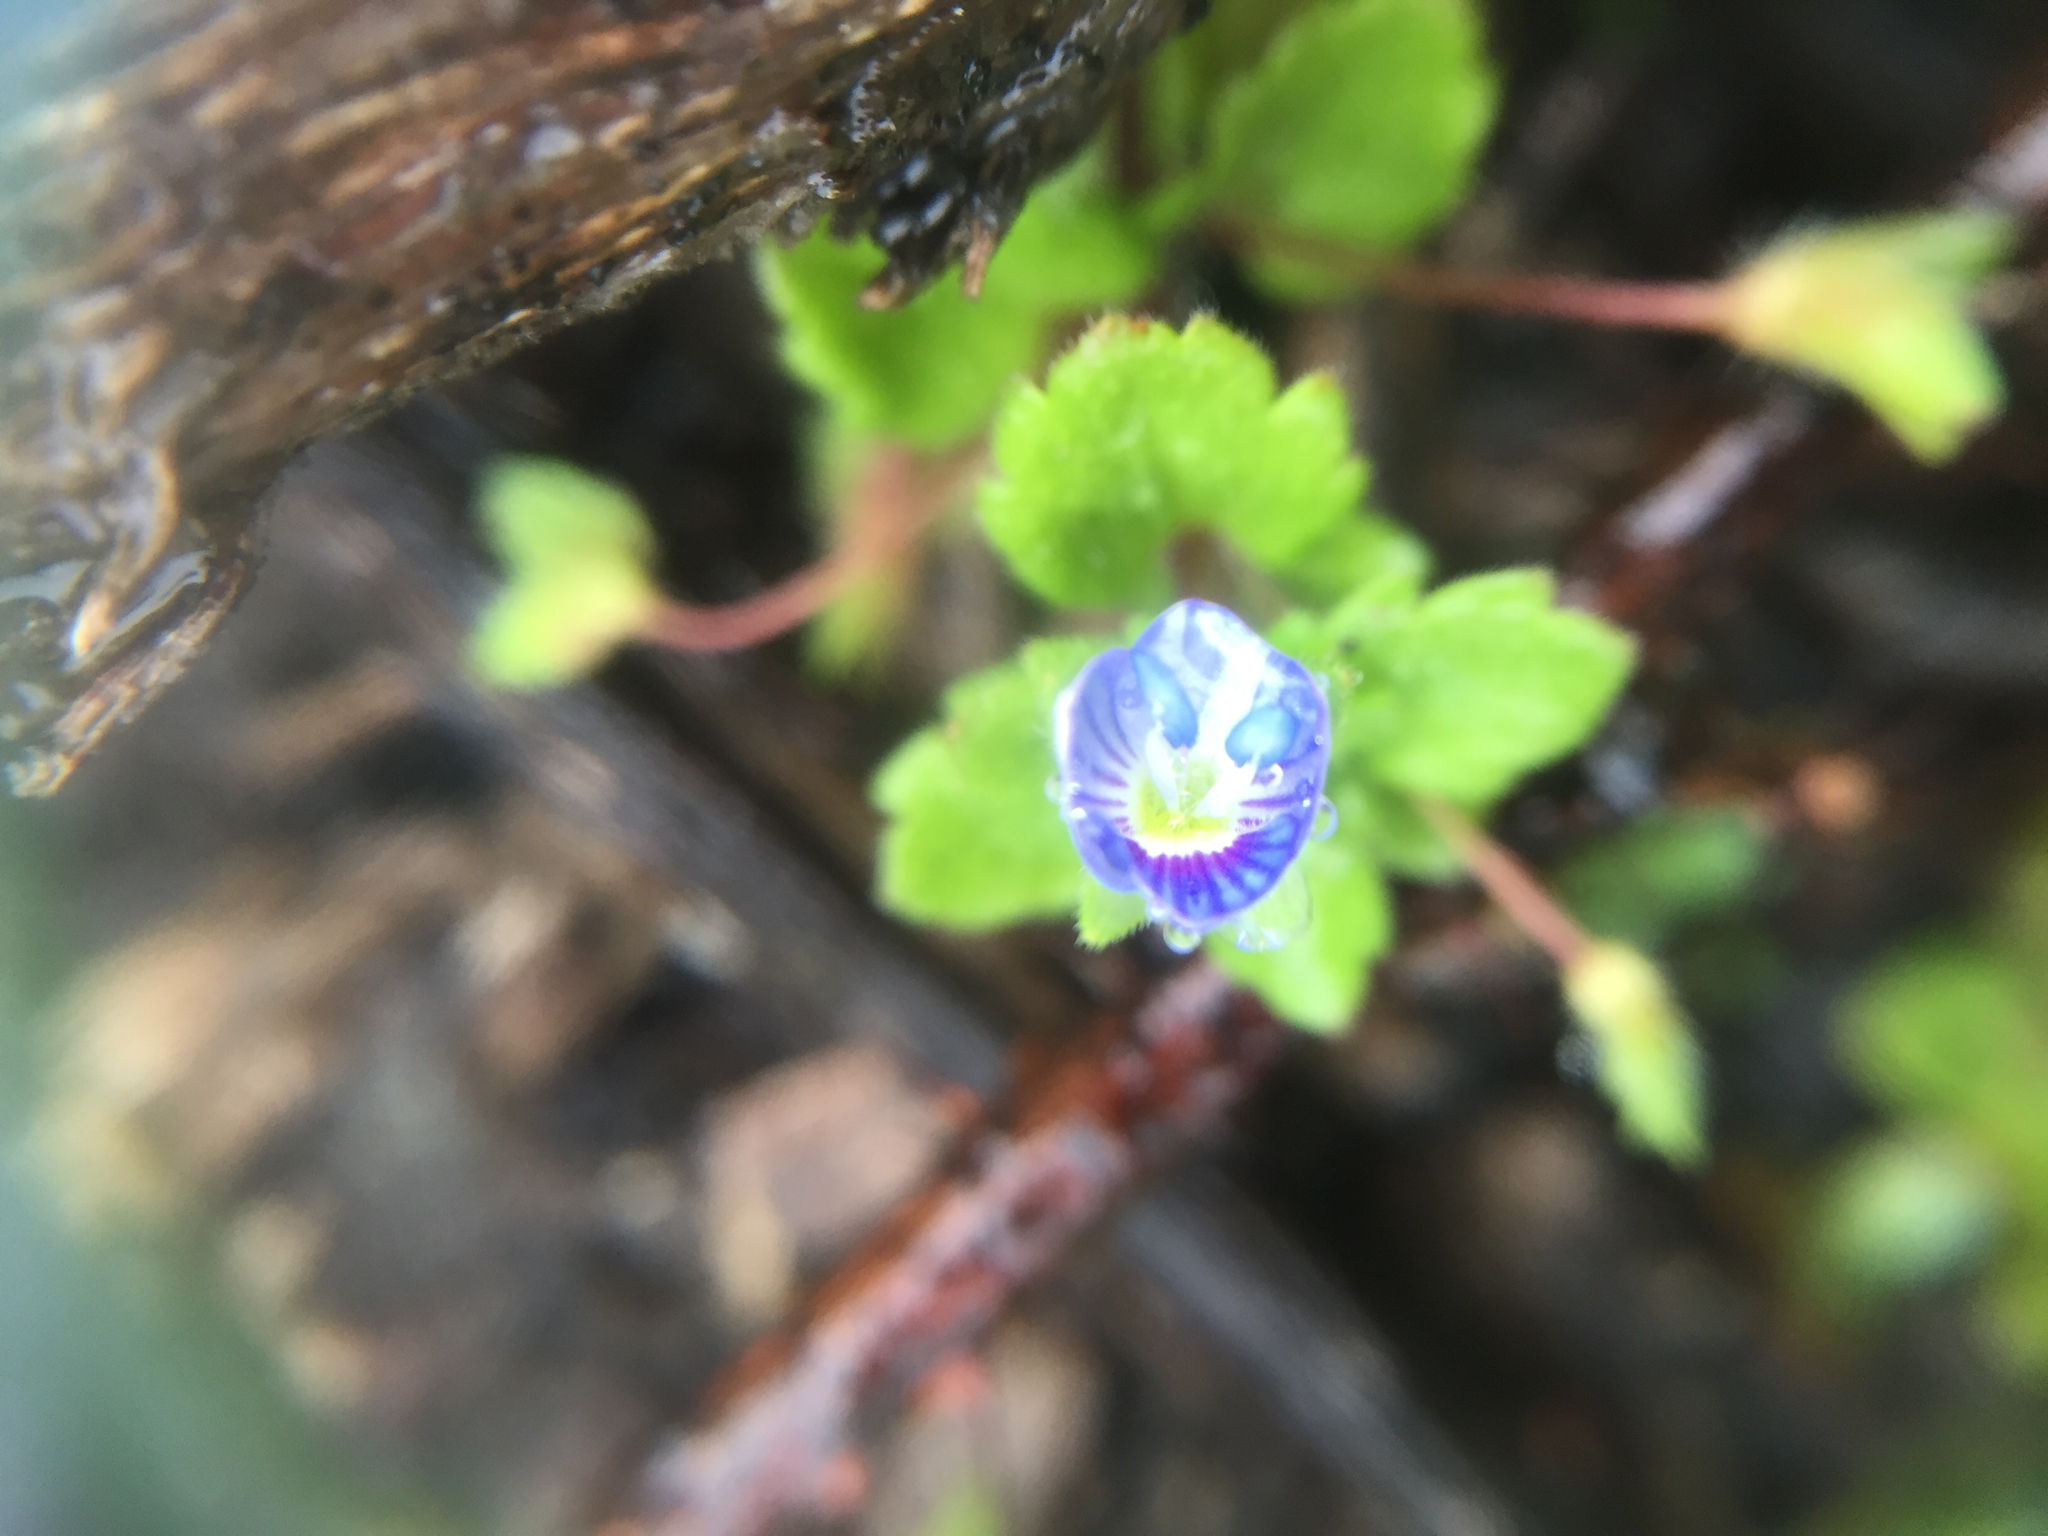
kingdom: Plantae
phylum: Tracheophyta
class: Magnoliopsida
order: Lamiales
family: Plantaginaceae
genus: Veronica
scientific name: Veronica persica
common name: Common field-speedwell
